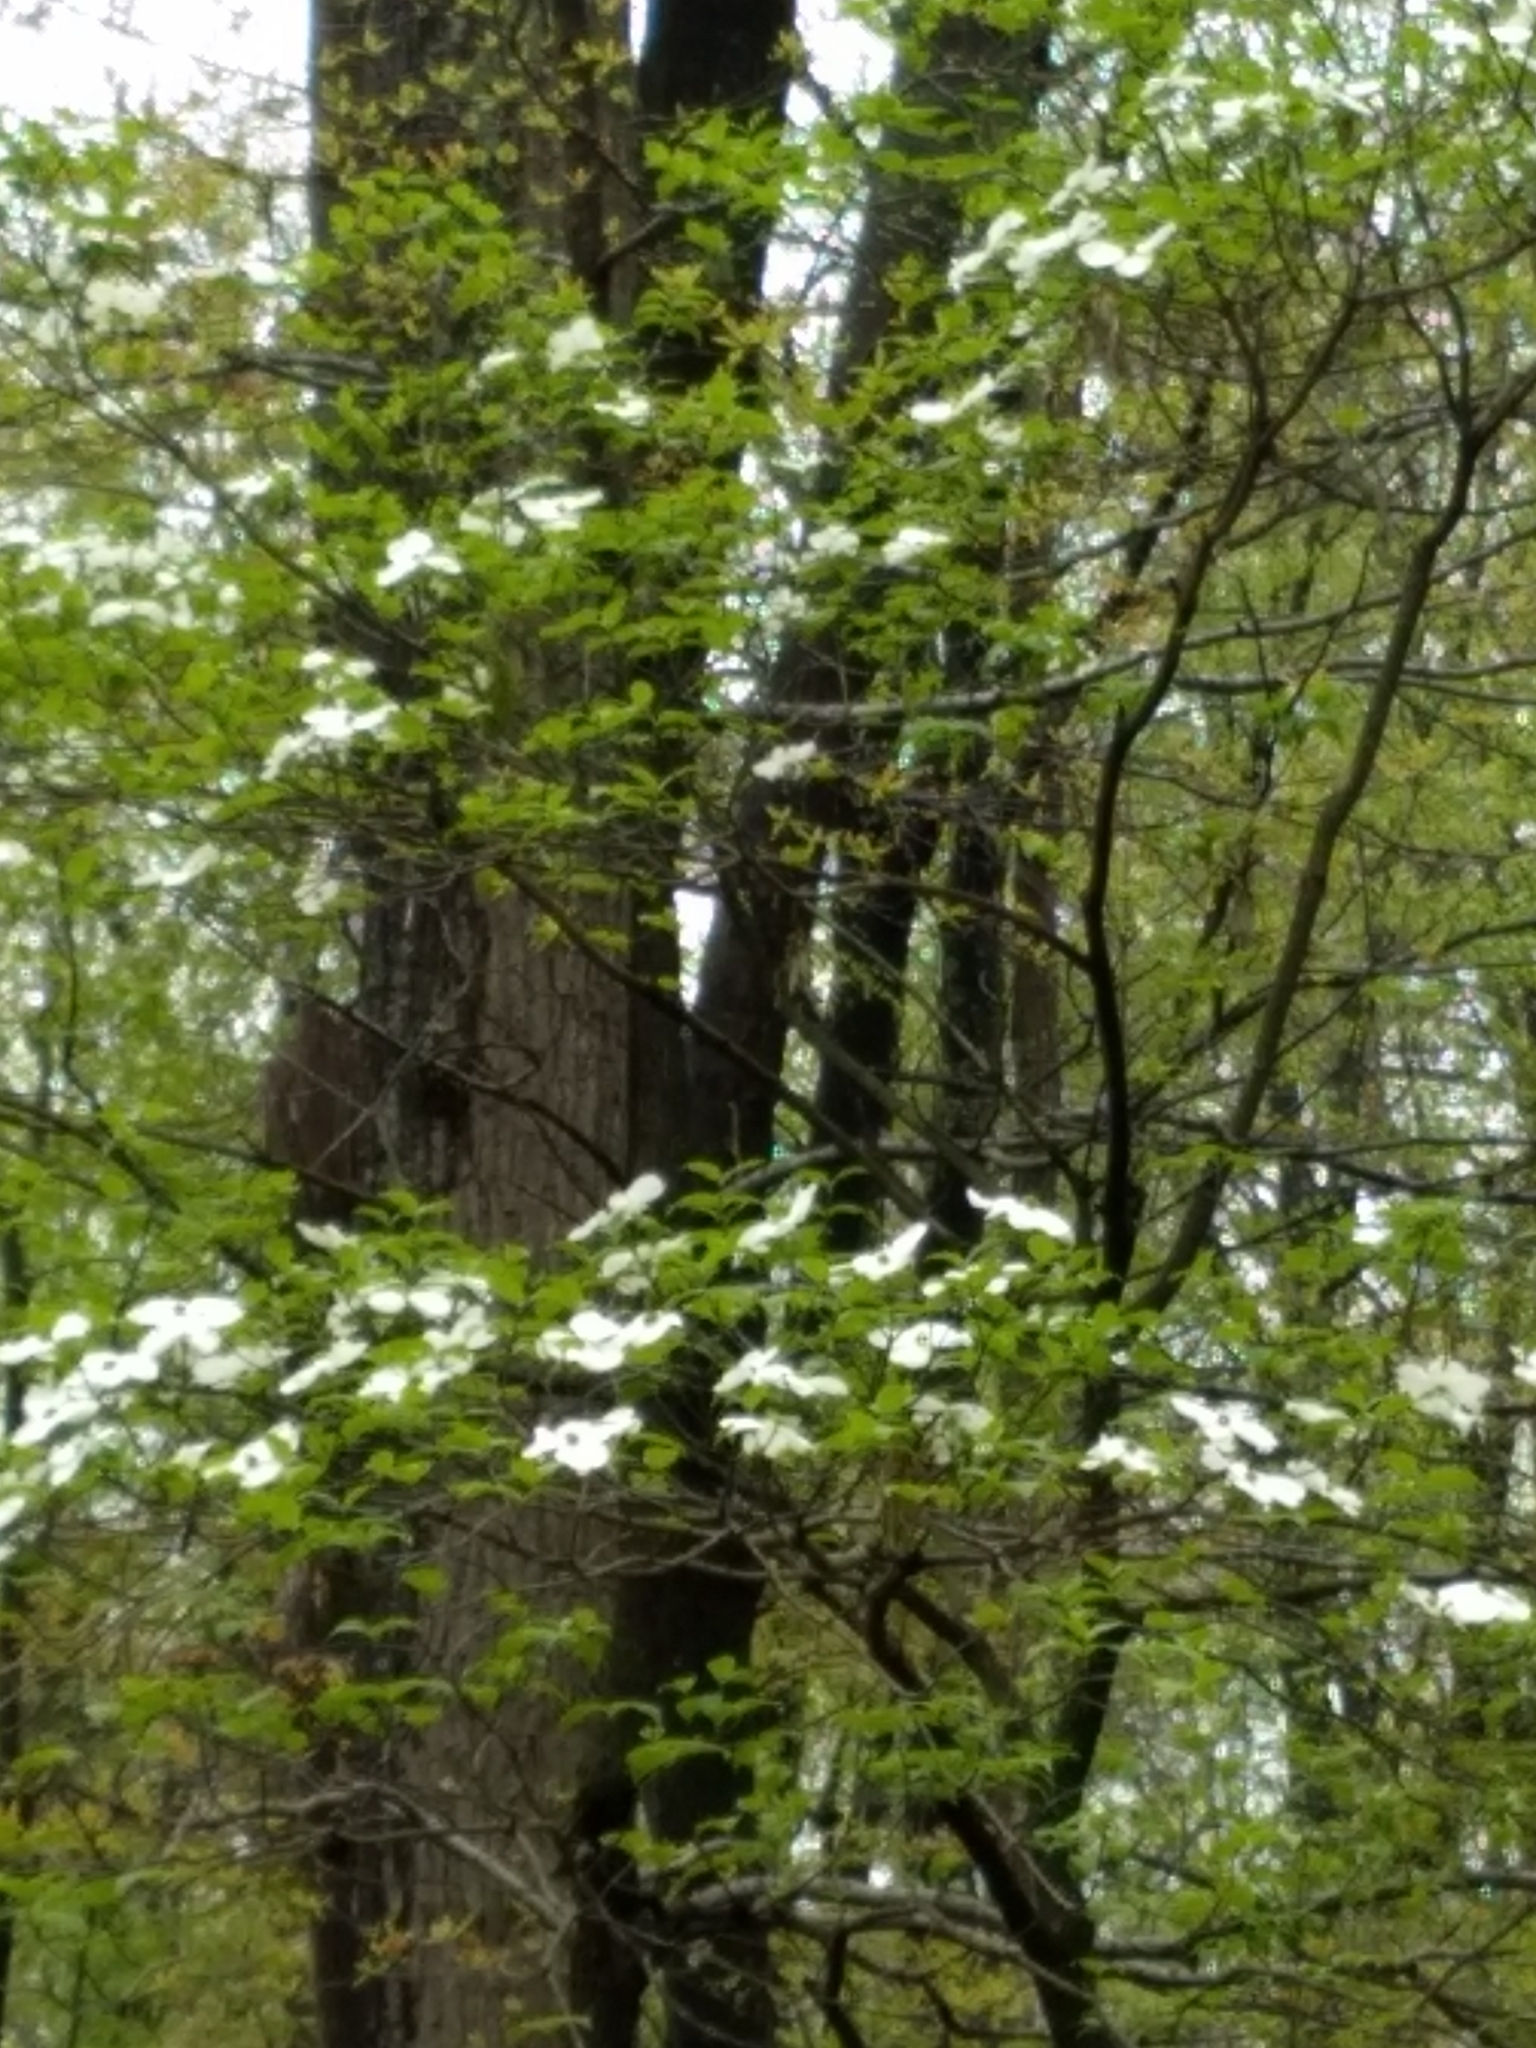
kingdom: Plantae
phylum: Tracheophyta
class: Magnoliopsida
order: Cornales
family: Cornaceae
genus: Cornus
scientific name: Cornus florida
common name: Flowering dogwood
